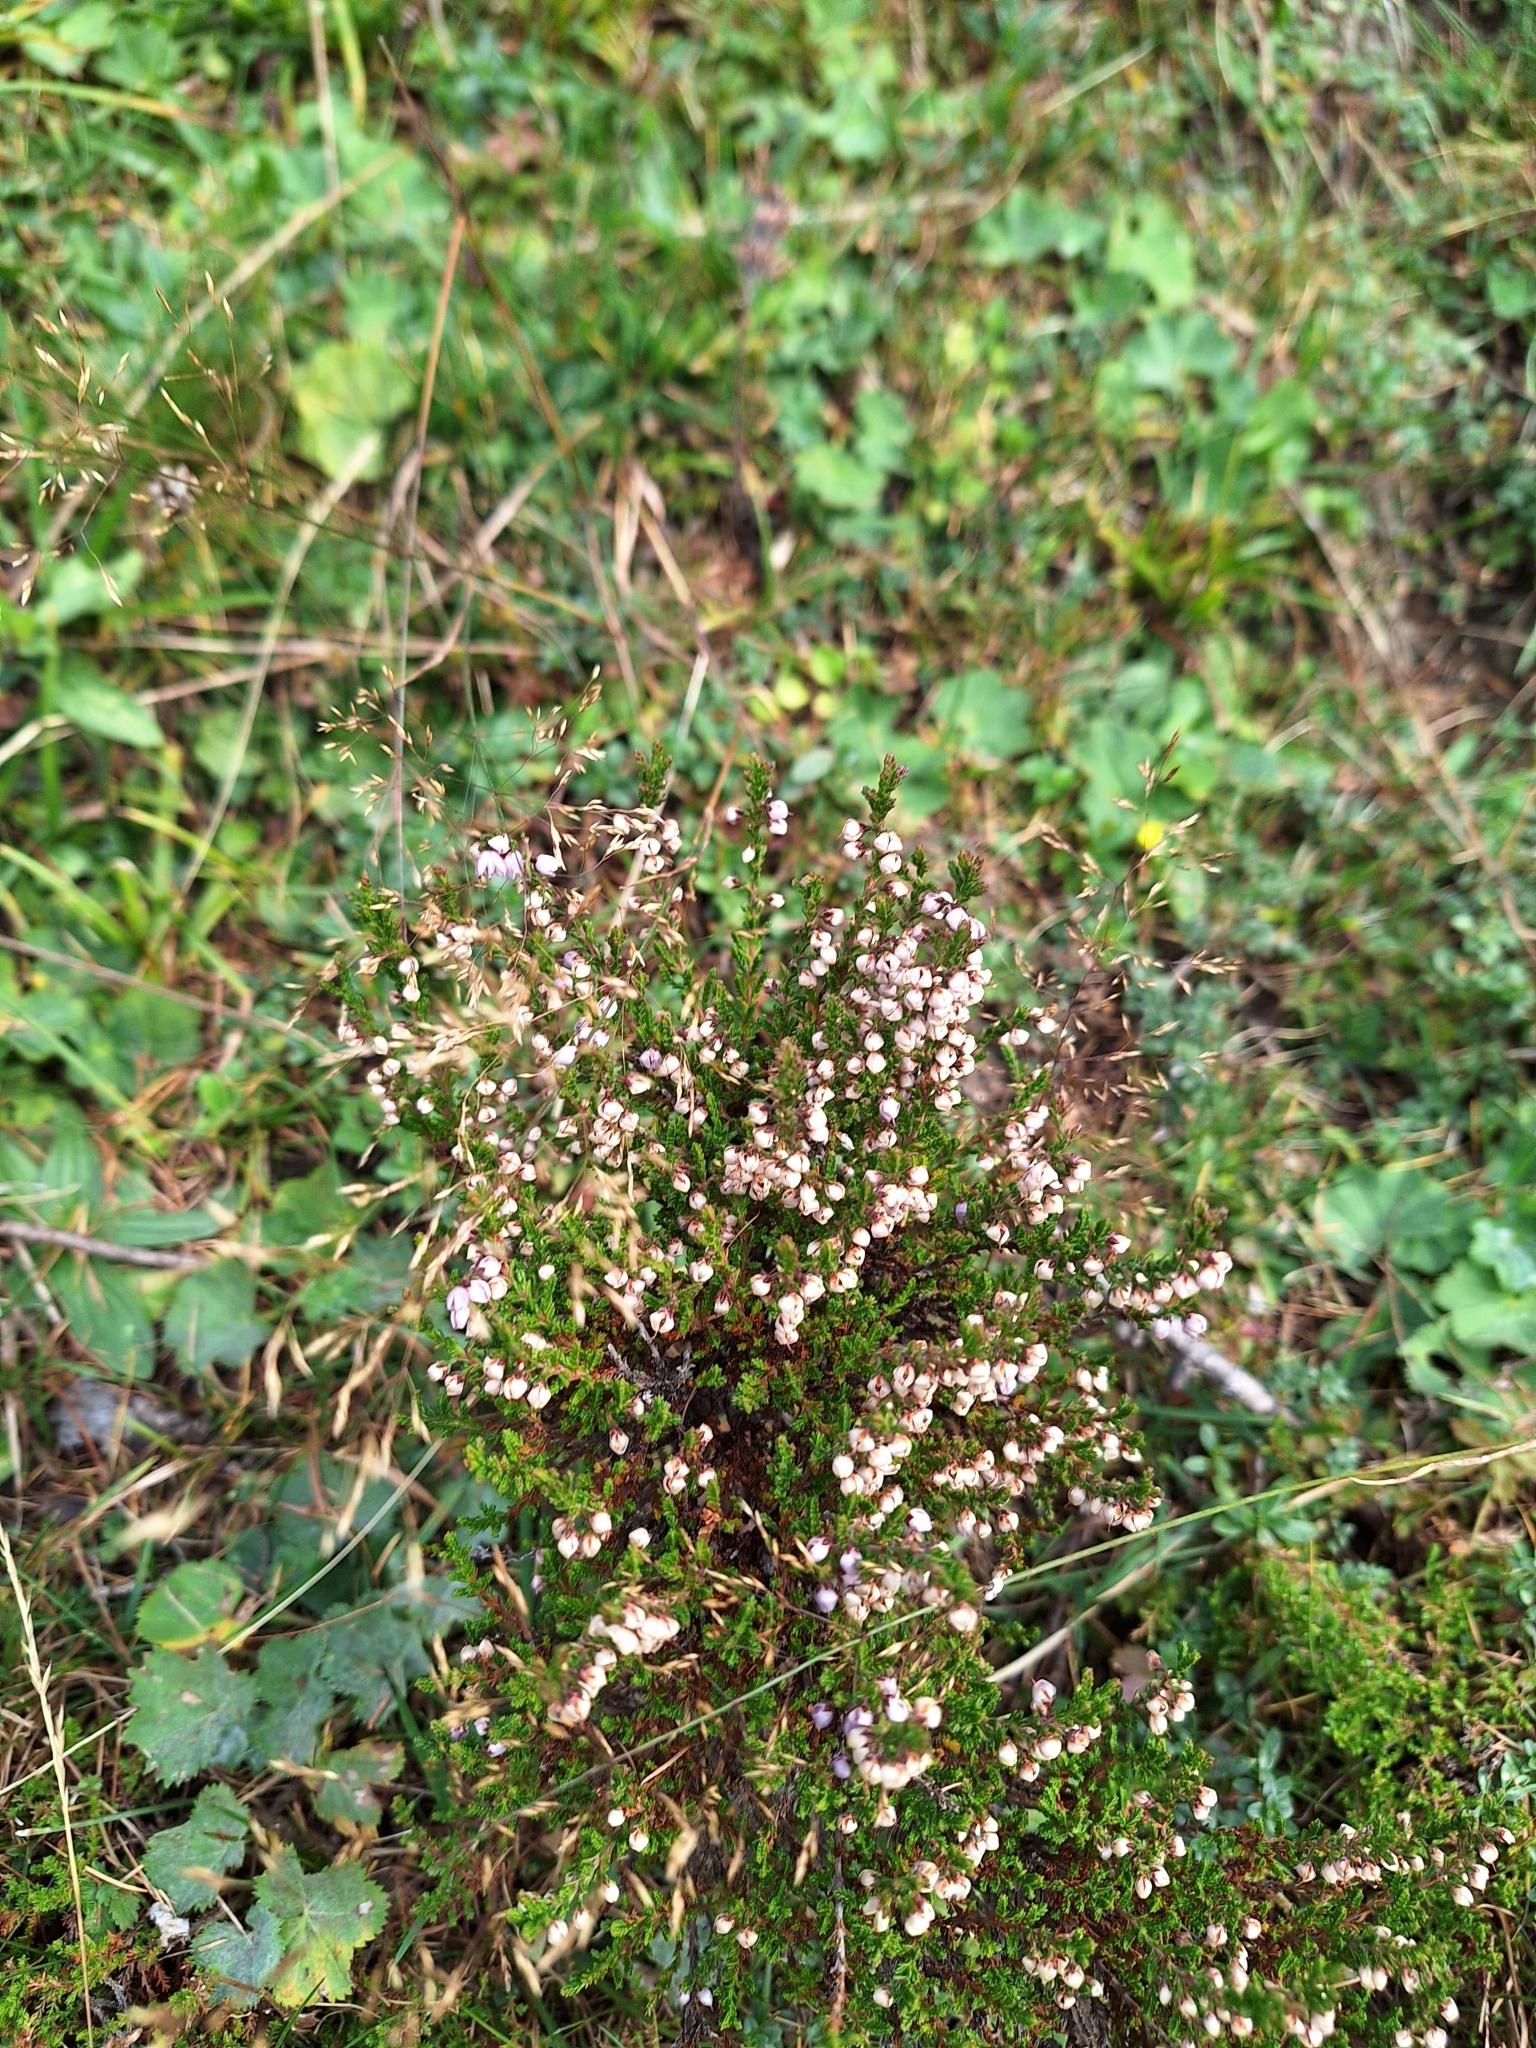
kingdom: Plantae
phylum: Tracheophyta
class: Magnoliopsida
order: Ericales
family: Ericaceae
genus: Calluna
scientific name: Calluna vulgaris
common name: Heather
